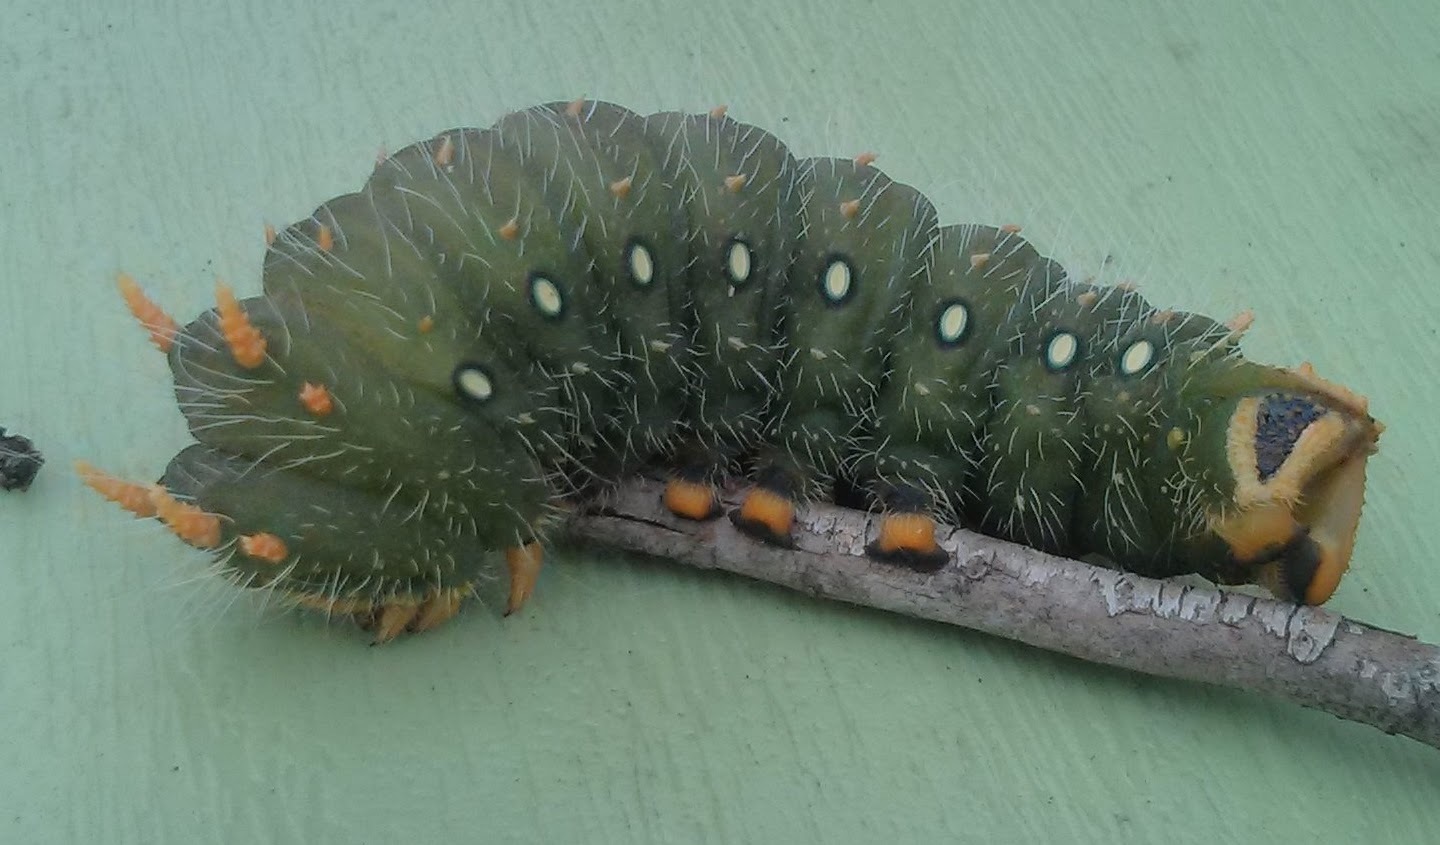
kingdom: Animalia
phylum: Arthropoda
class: Insecta
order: Lepidoptera
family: Saturniidae
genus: Eacles
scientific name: Eacles imperialis
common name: Imperial moth
